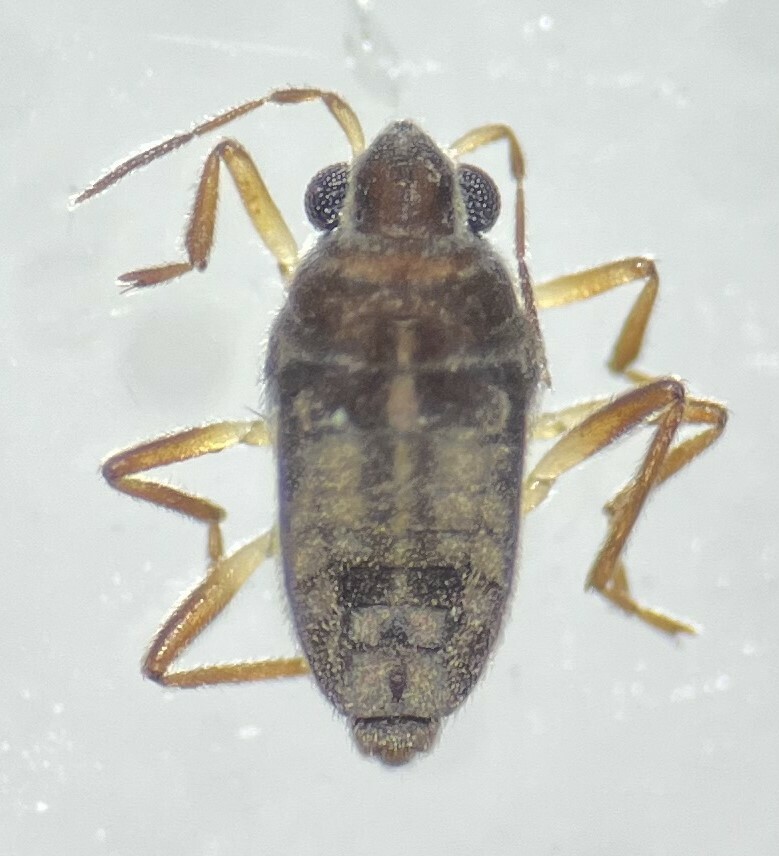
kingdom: Animalia
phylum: Arthropoda
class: Insecta
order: Hemiptera
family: Veliidae
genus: Microvelia
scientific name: Microvelia hinei
